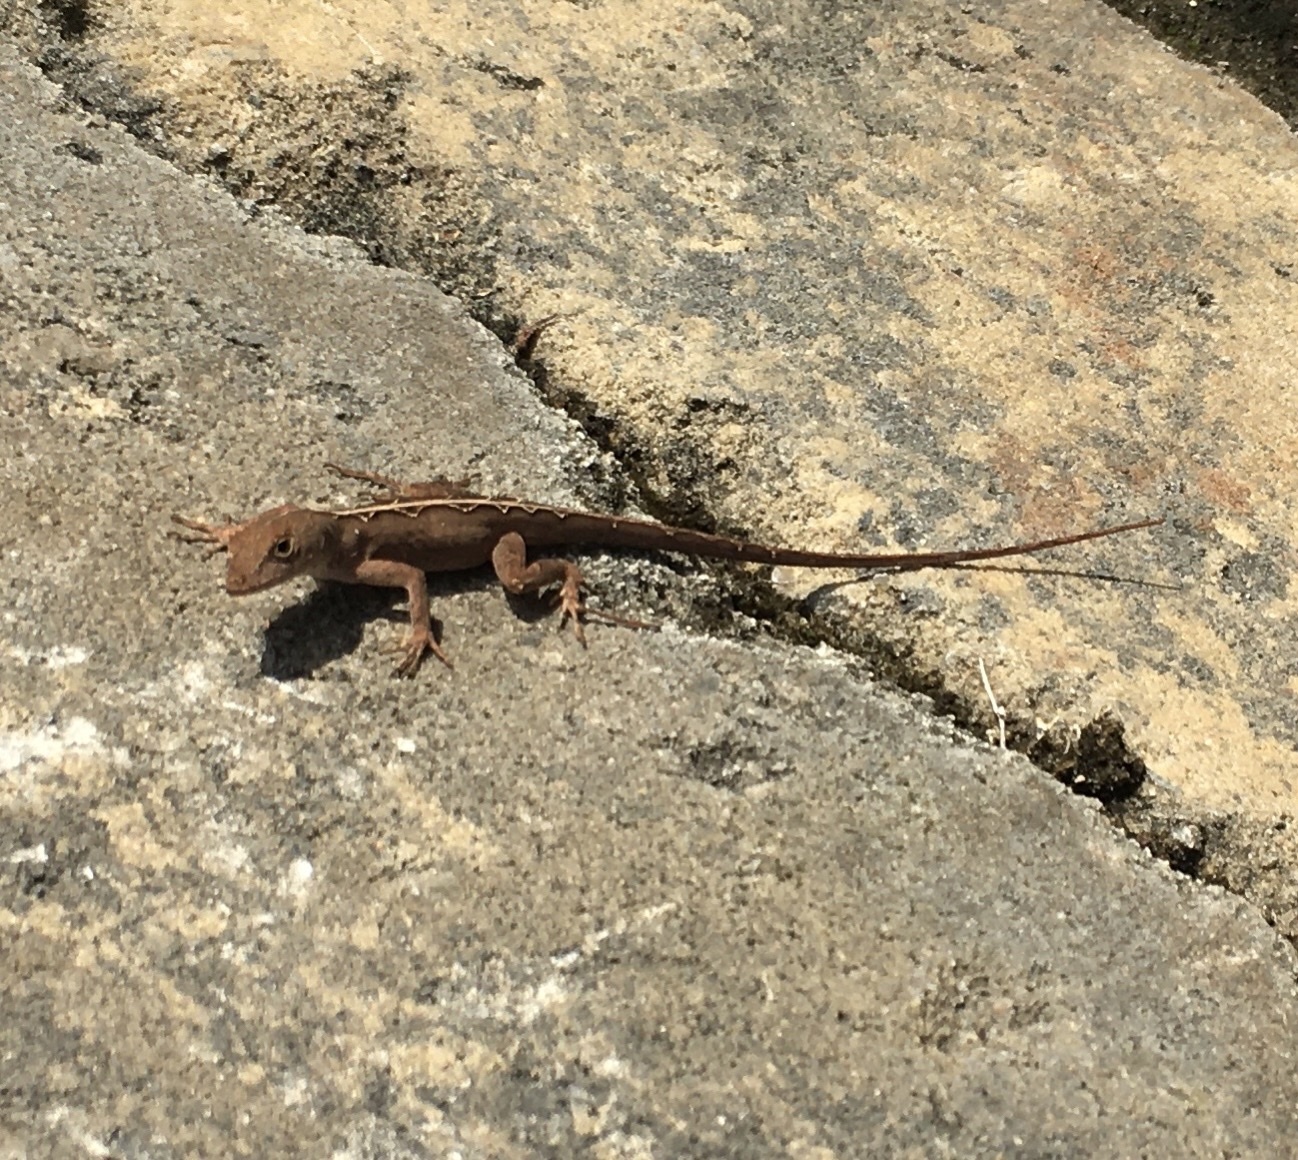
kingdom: Animalia
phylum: Chordata
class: Squamata
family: Dactyloidae
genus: Anolis
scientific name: Anolis sagrei
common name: Brown anole
